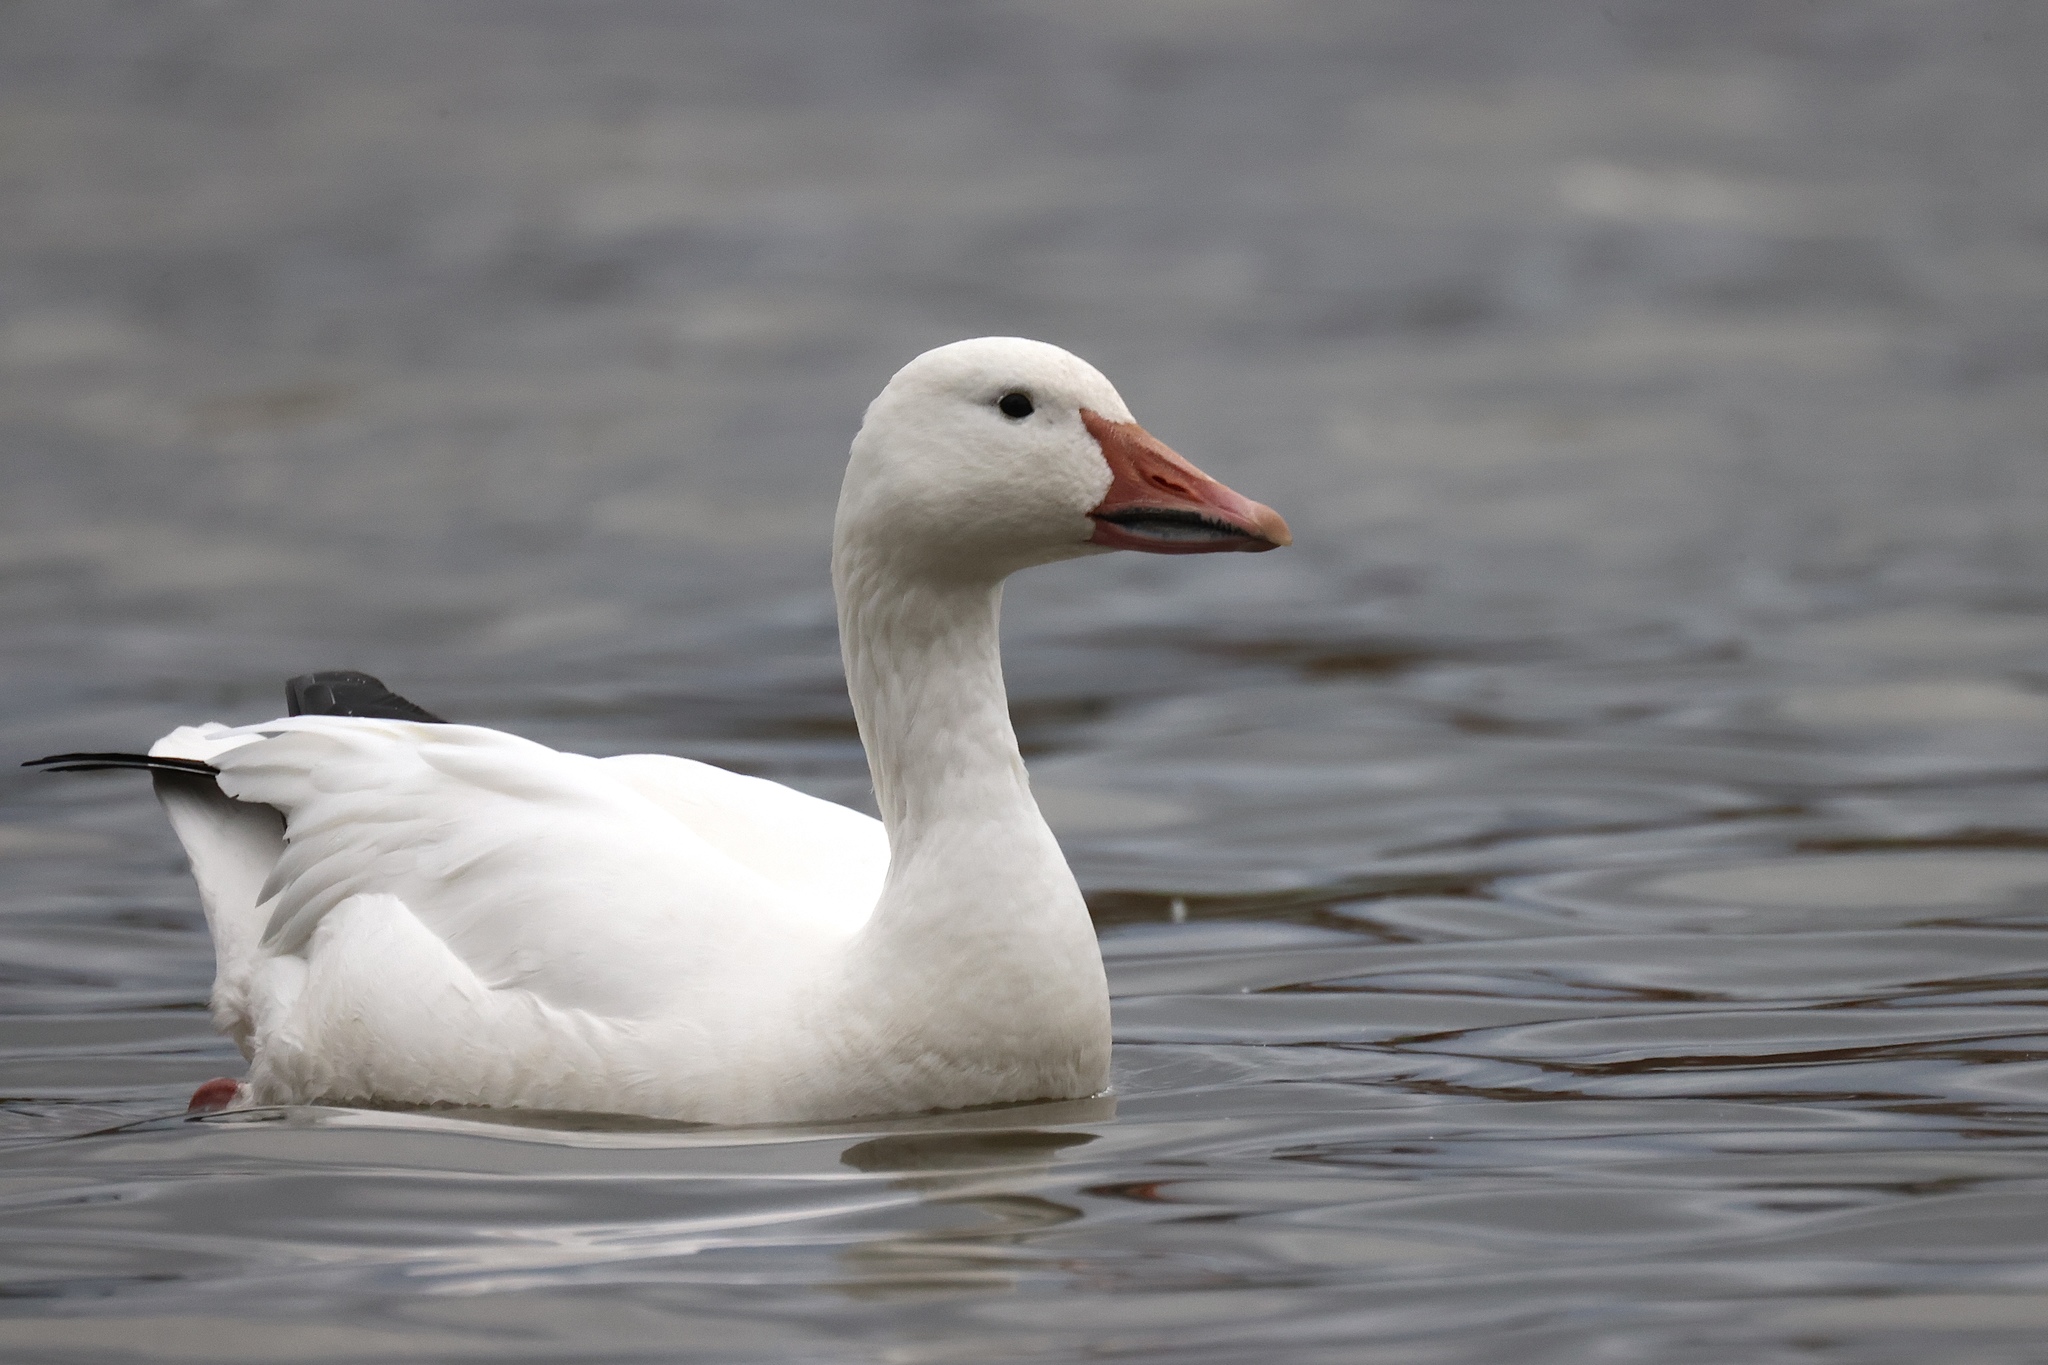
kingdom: Animalia
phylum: Chordata
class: Aves
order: Anseriformes
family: Anatidae
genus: Anser
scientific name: Anser caerulescens
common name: Snow goose
